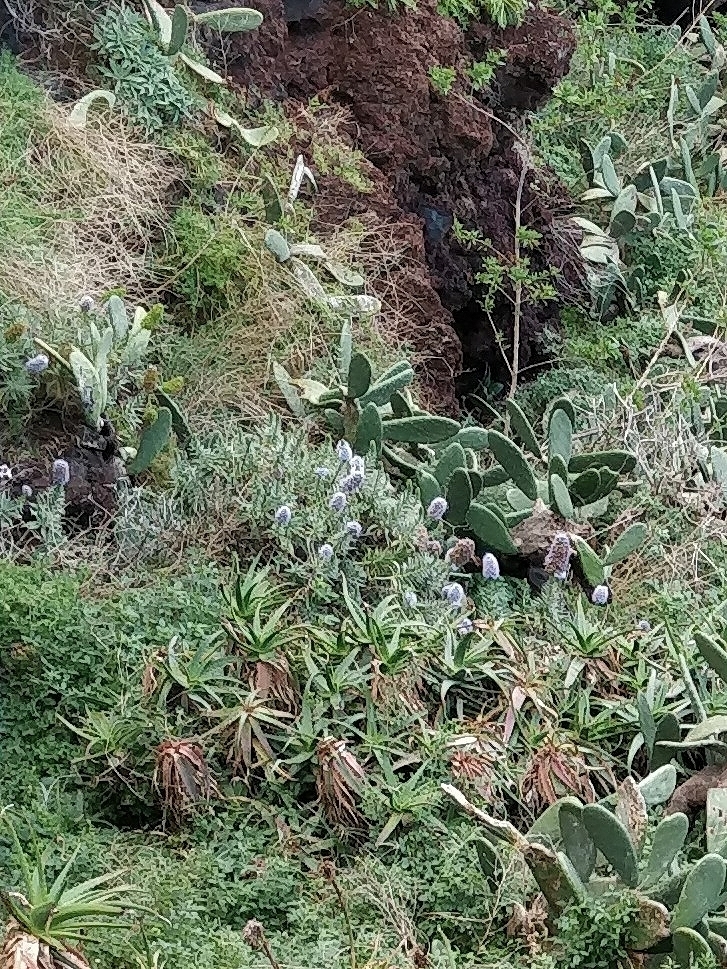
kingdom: Plantae
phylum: Tracheophyta
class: Magnoliopsida
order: Boraginales
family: Boraginaceae
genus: Echium
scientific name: Echium nervosum
